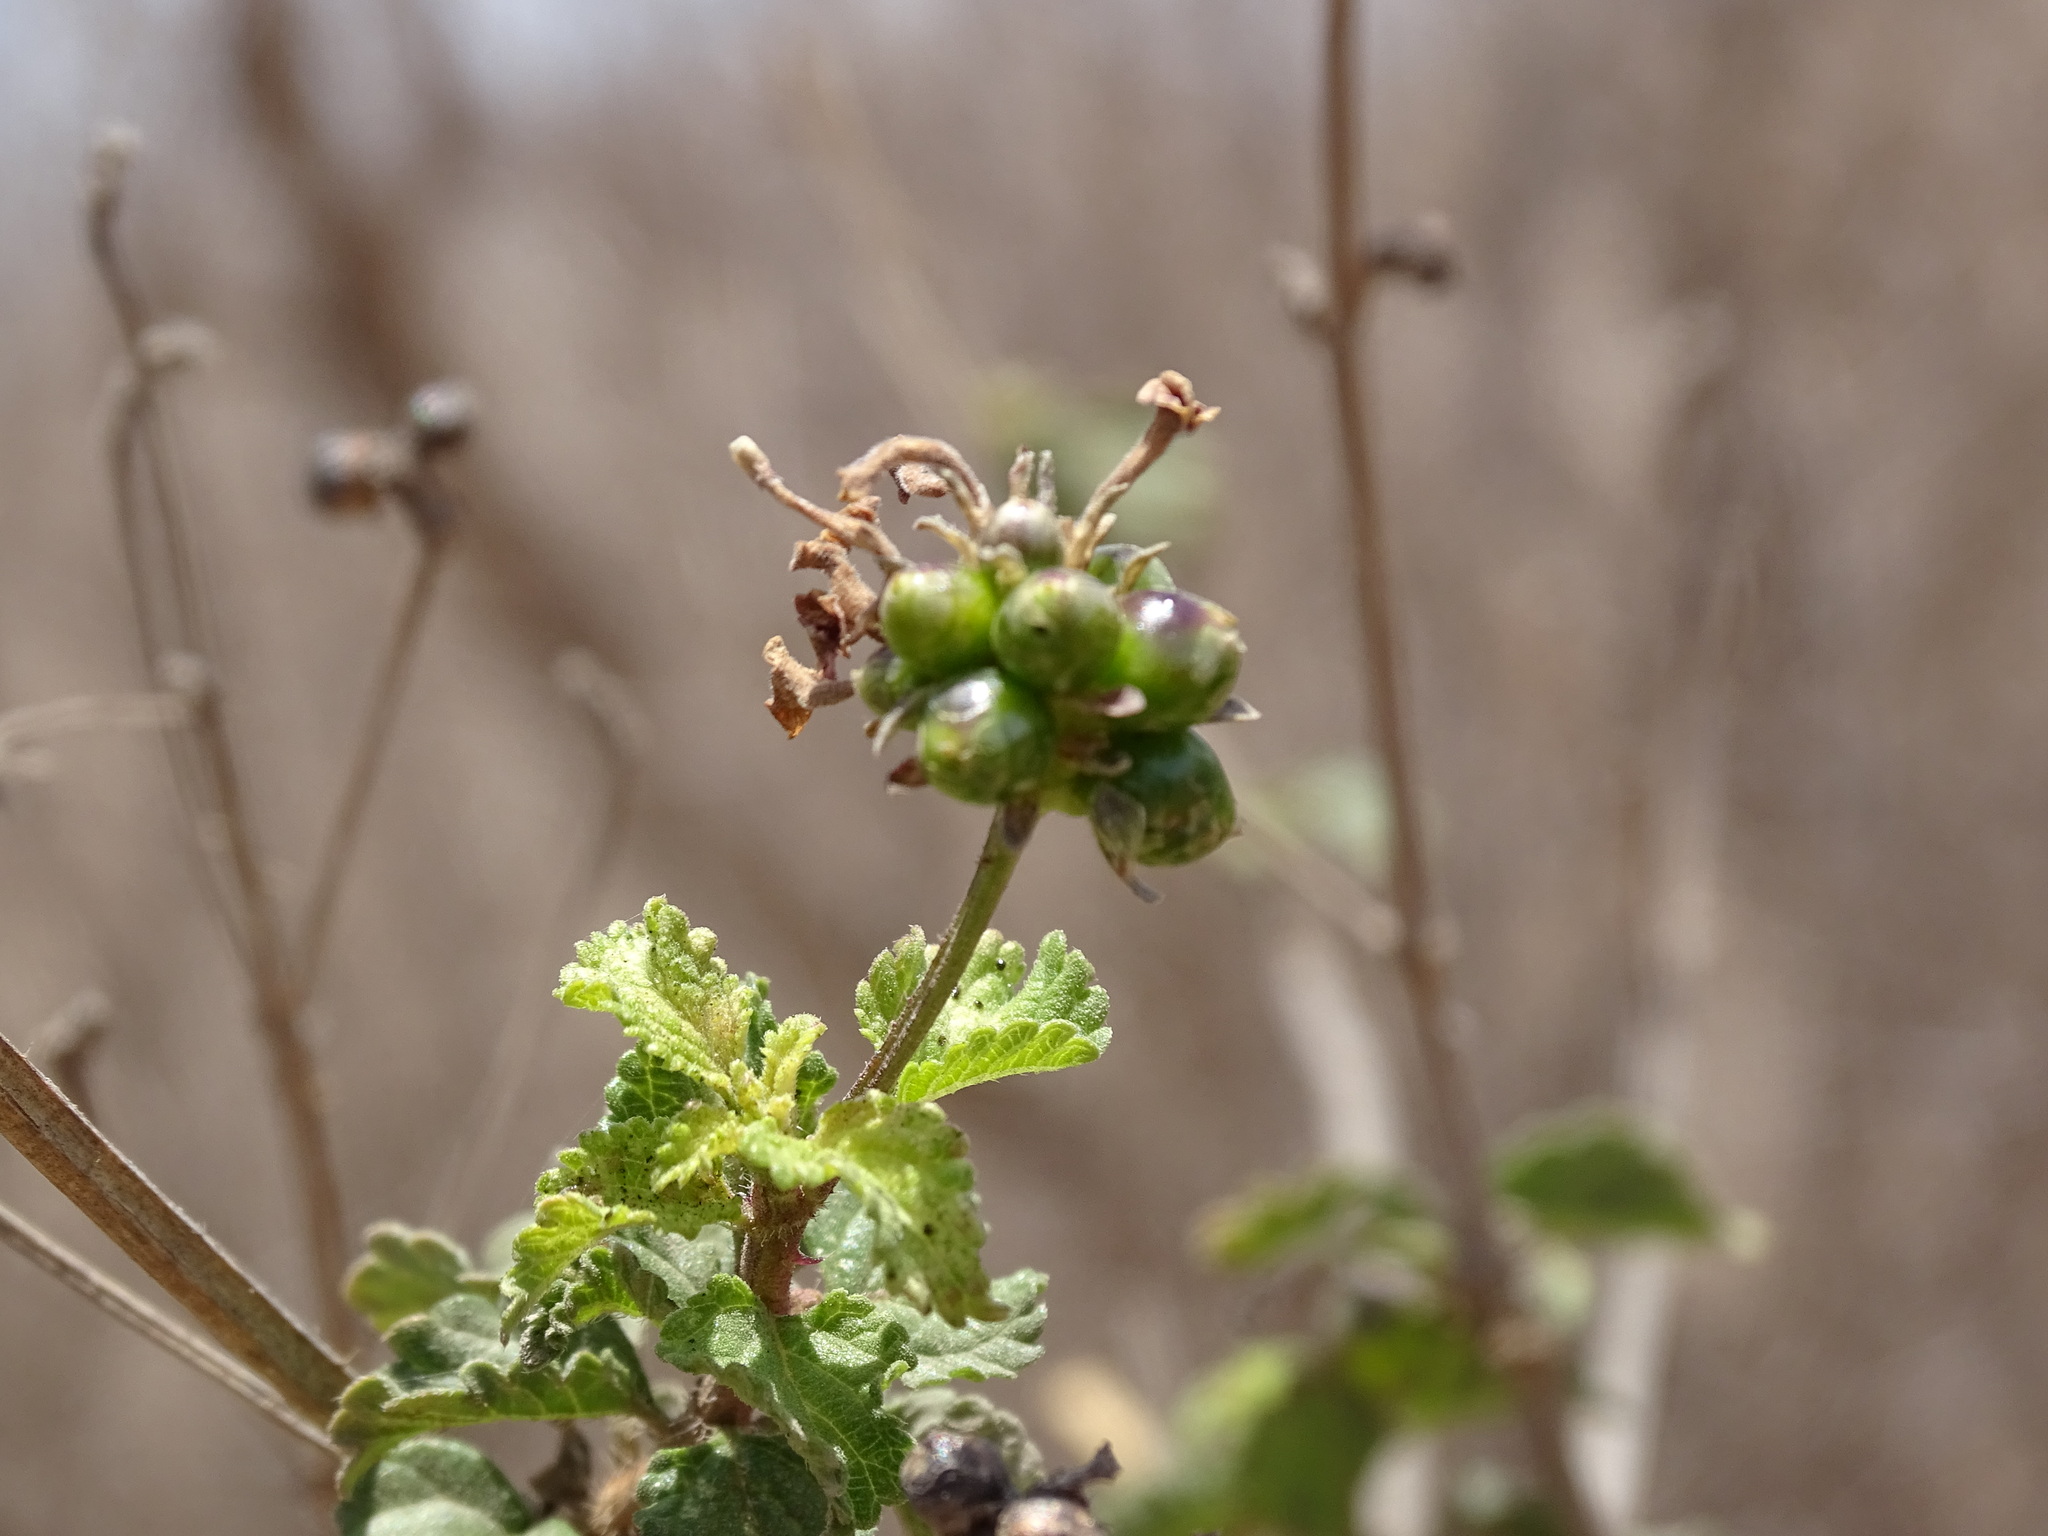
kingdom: Plantae
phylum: Tracheophyta
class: Magnoliopsida
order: Lamiales
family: Verbenaceae
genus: Lantana
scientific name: Lantana horrida
